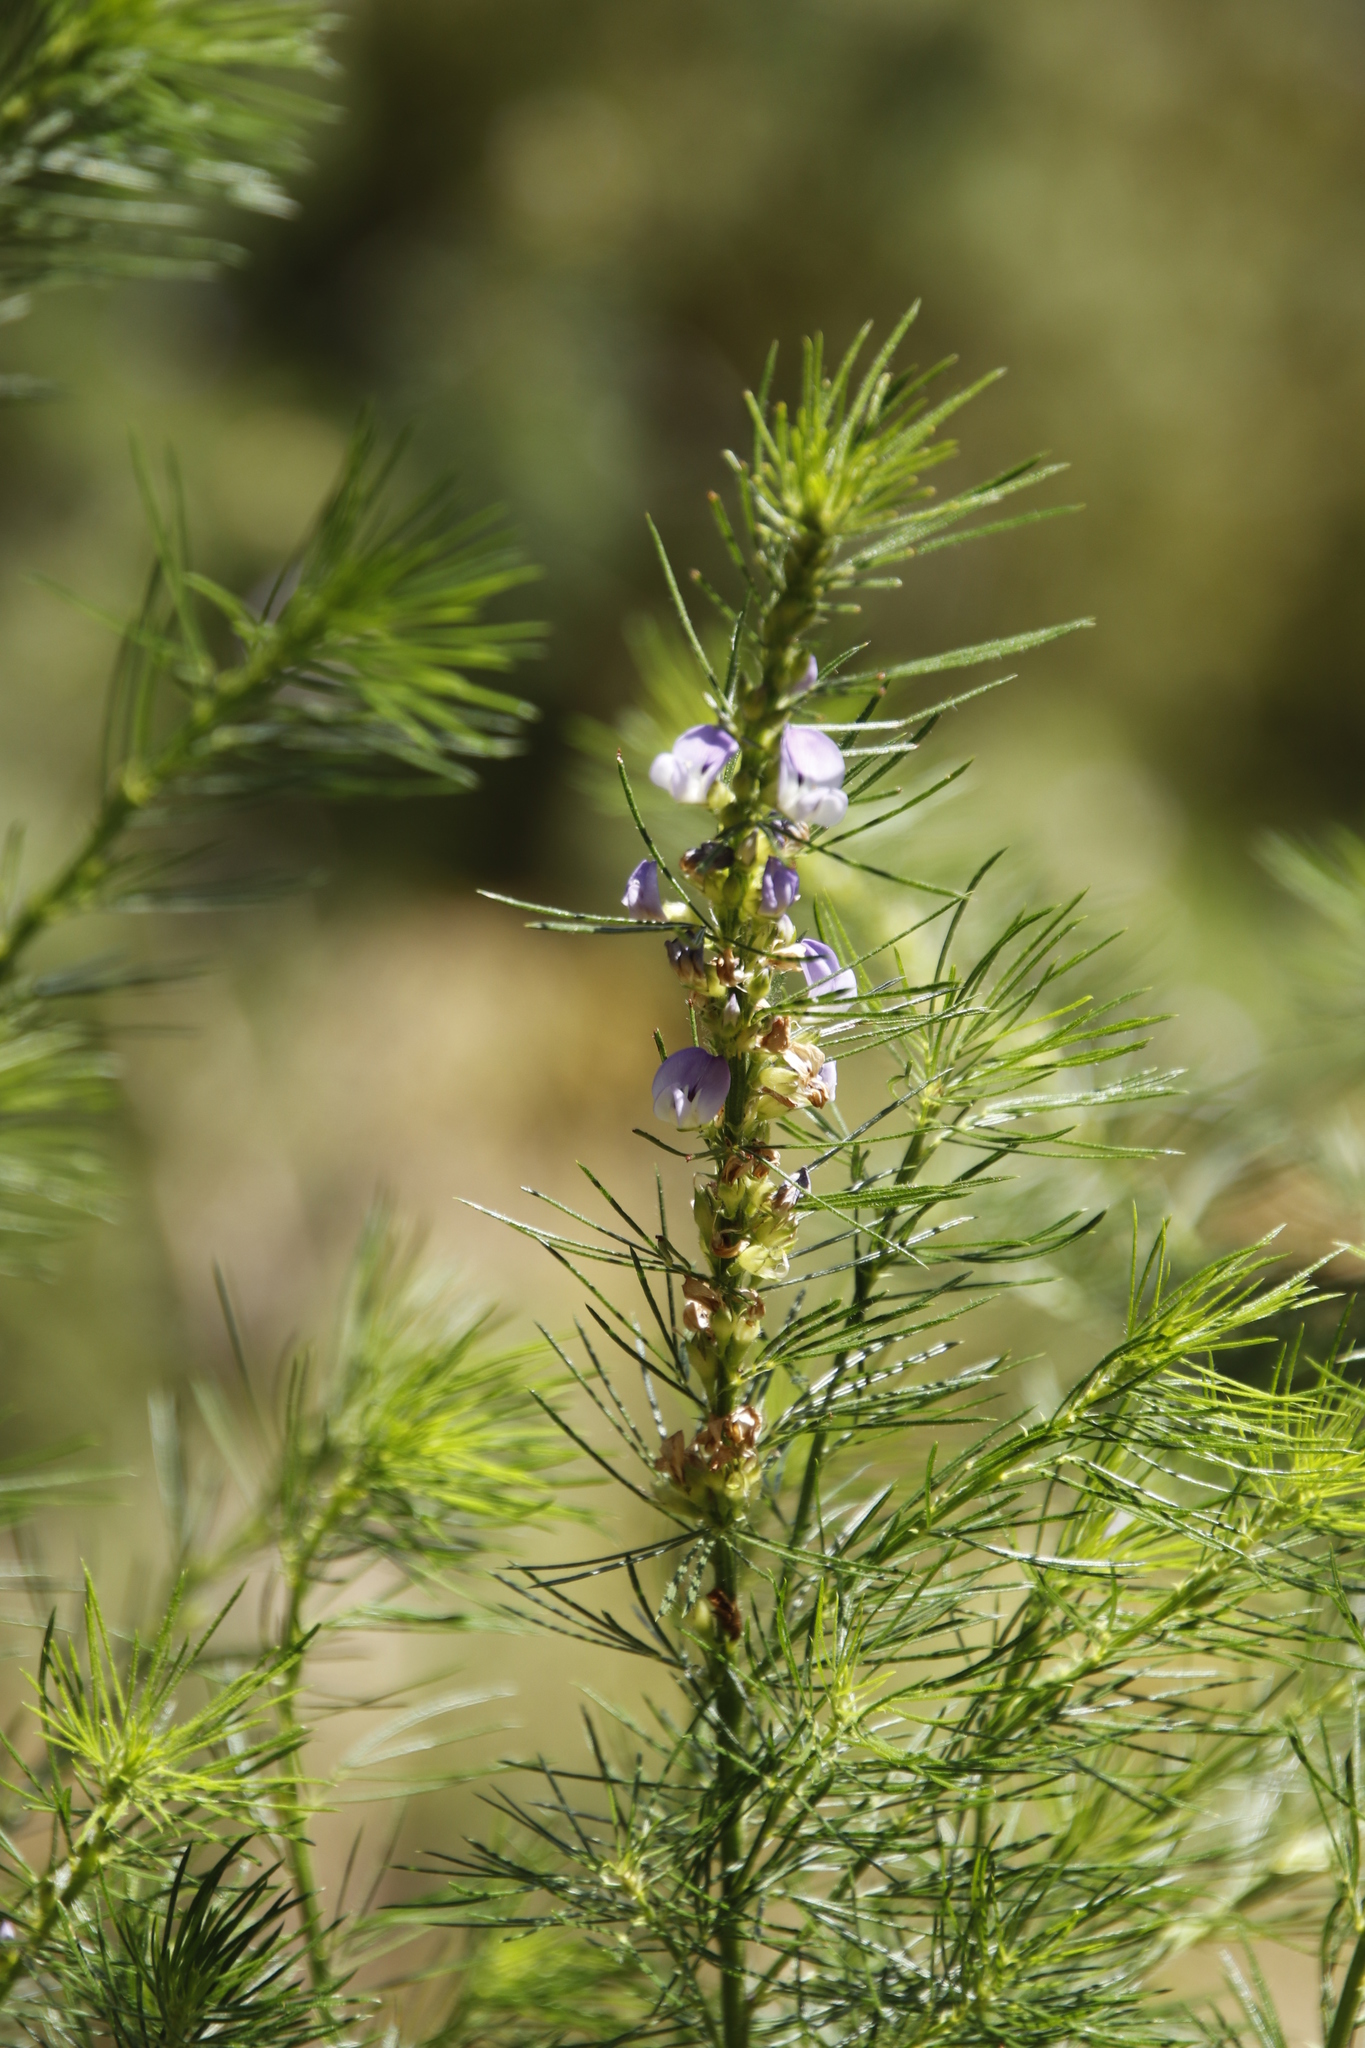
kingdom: Plantae
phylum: Tracheophyta
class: Magnoliopsida
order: Fabales
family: Fabaceae
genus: Psoralea
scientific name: Psoralea pinnata
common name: African scurfpea
